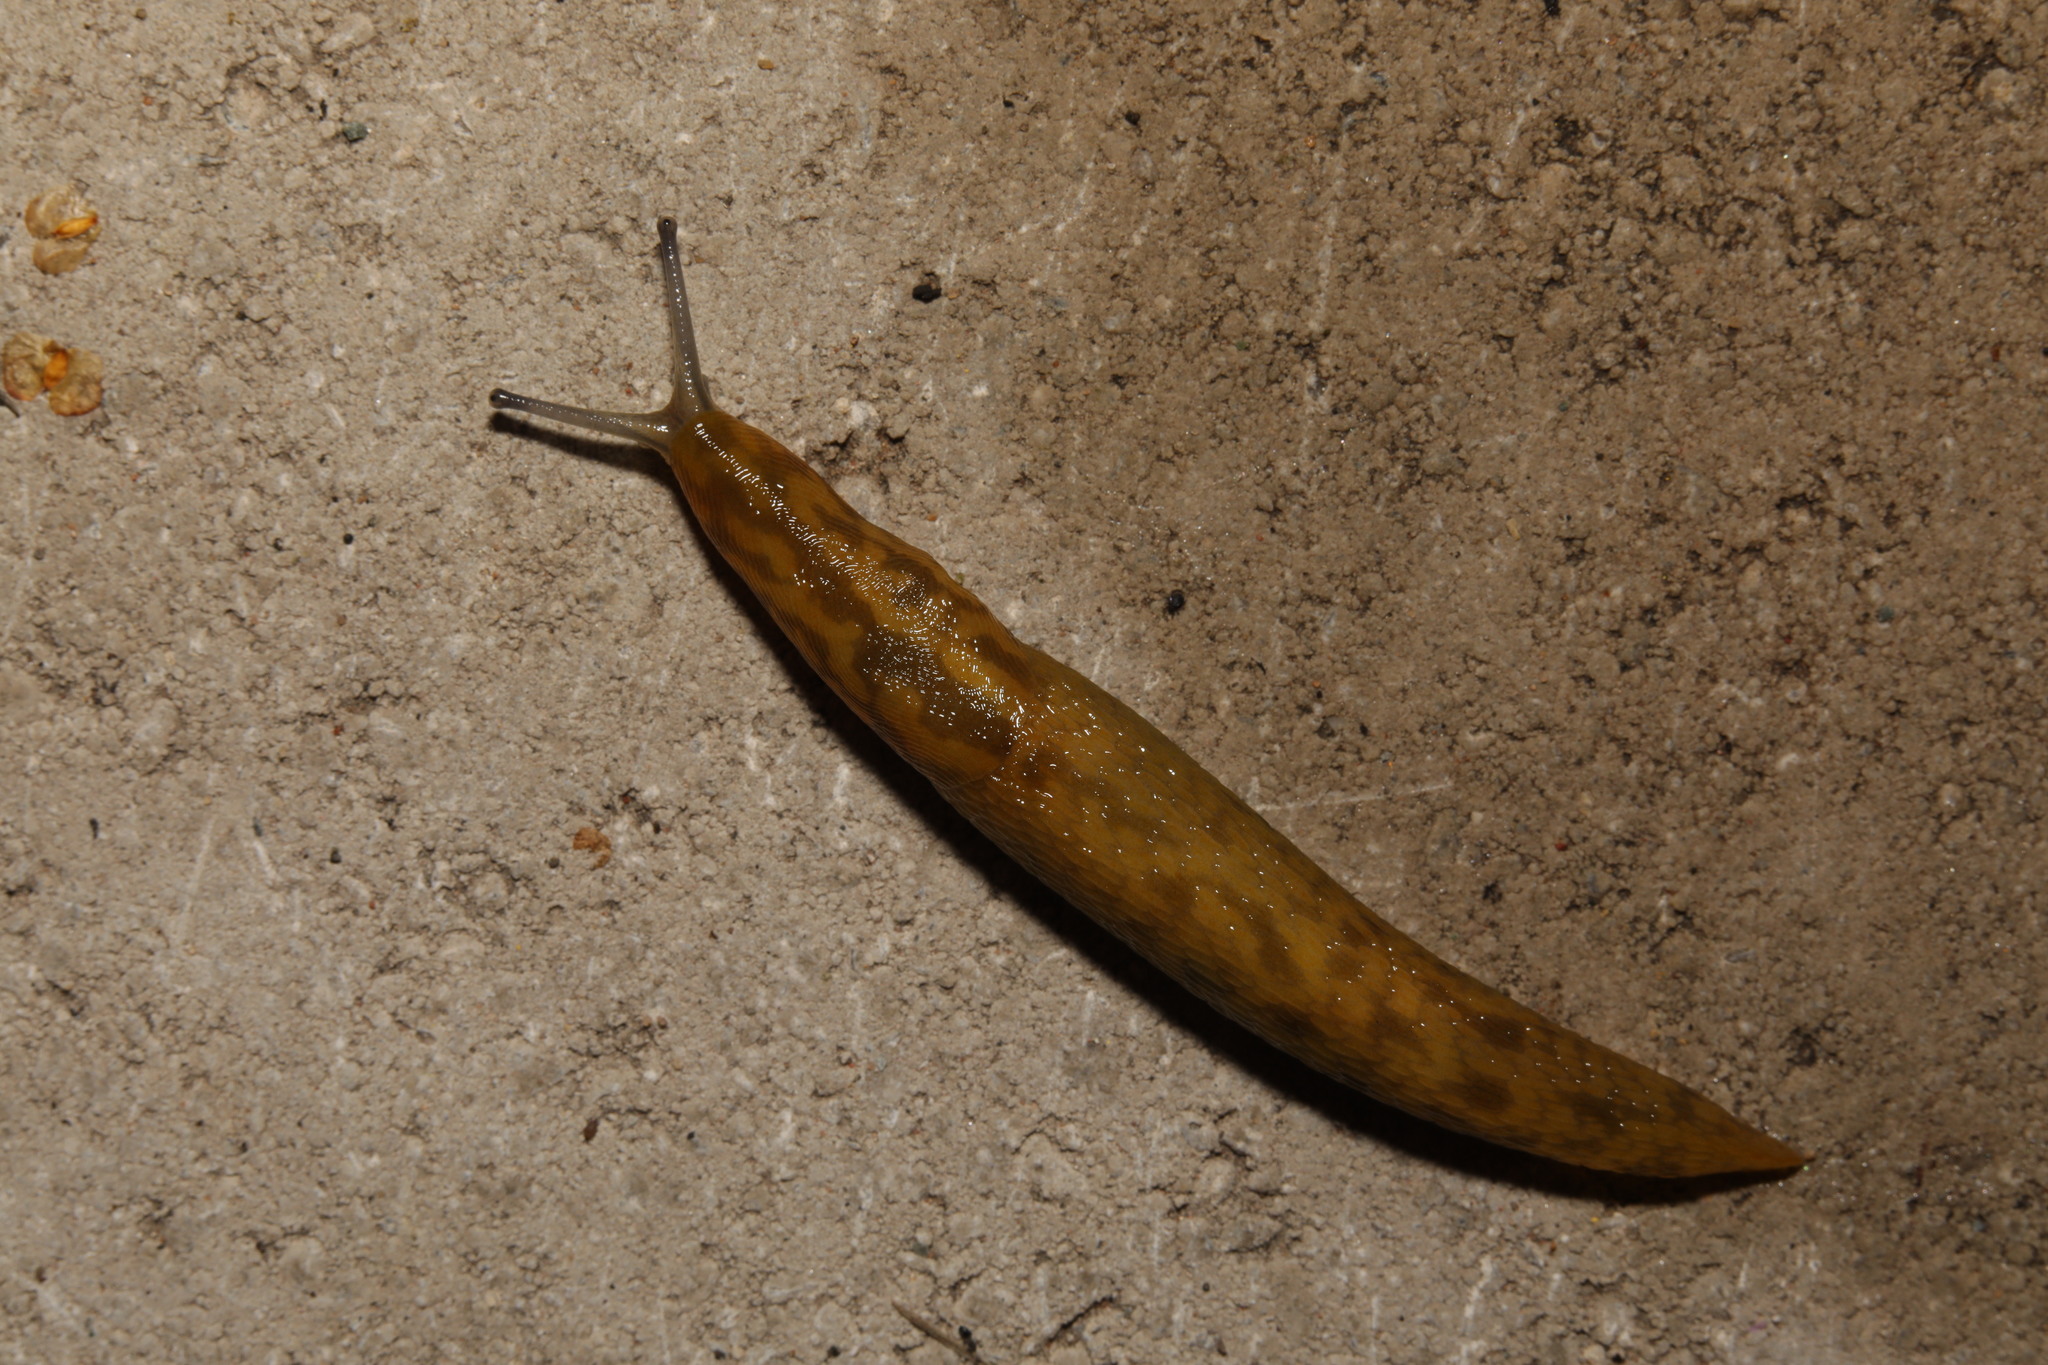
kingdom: Animalia
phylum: Mollusca
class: Gastropoda
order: Stylommatophora
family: Limacidae
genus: Limacus
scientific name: Limacus maculatus
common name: Irish yellow slug
